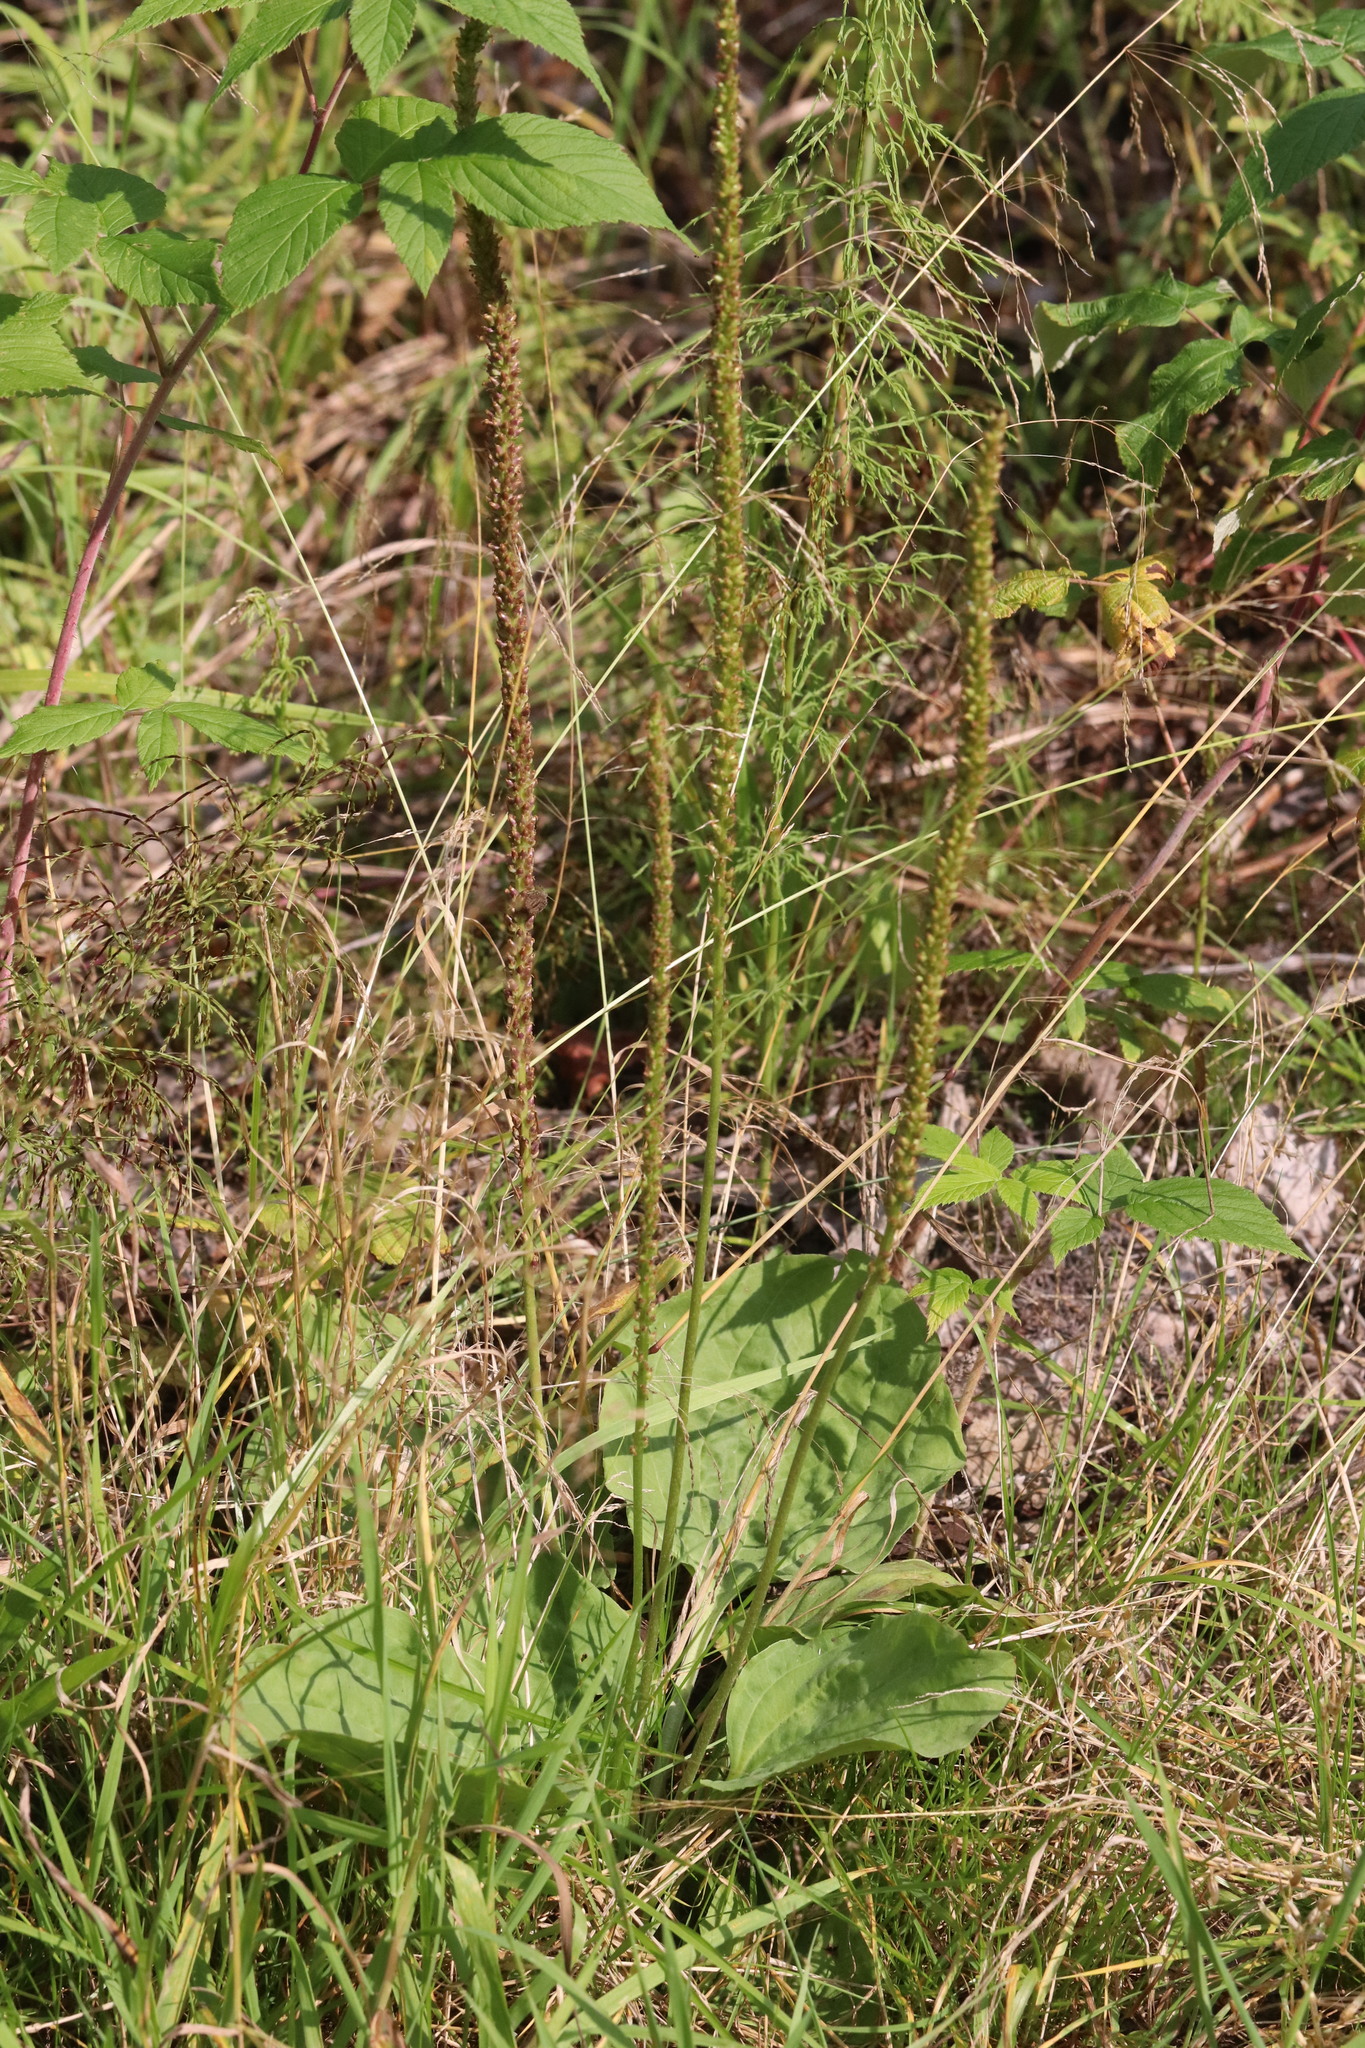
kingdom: Plantae
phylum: Tracheophyta
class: Magnoliopsida
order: Lamiales
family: Plantaginaceae
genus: Plantago
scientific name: Plantago major
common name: Common plantain
